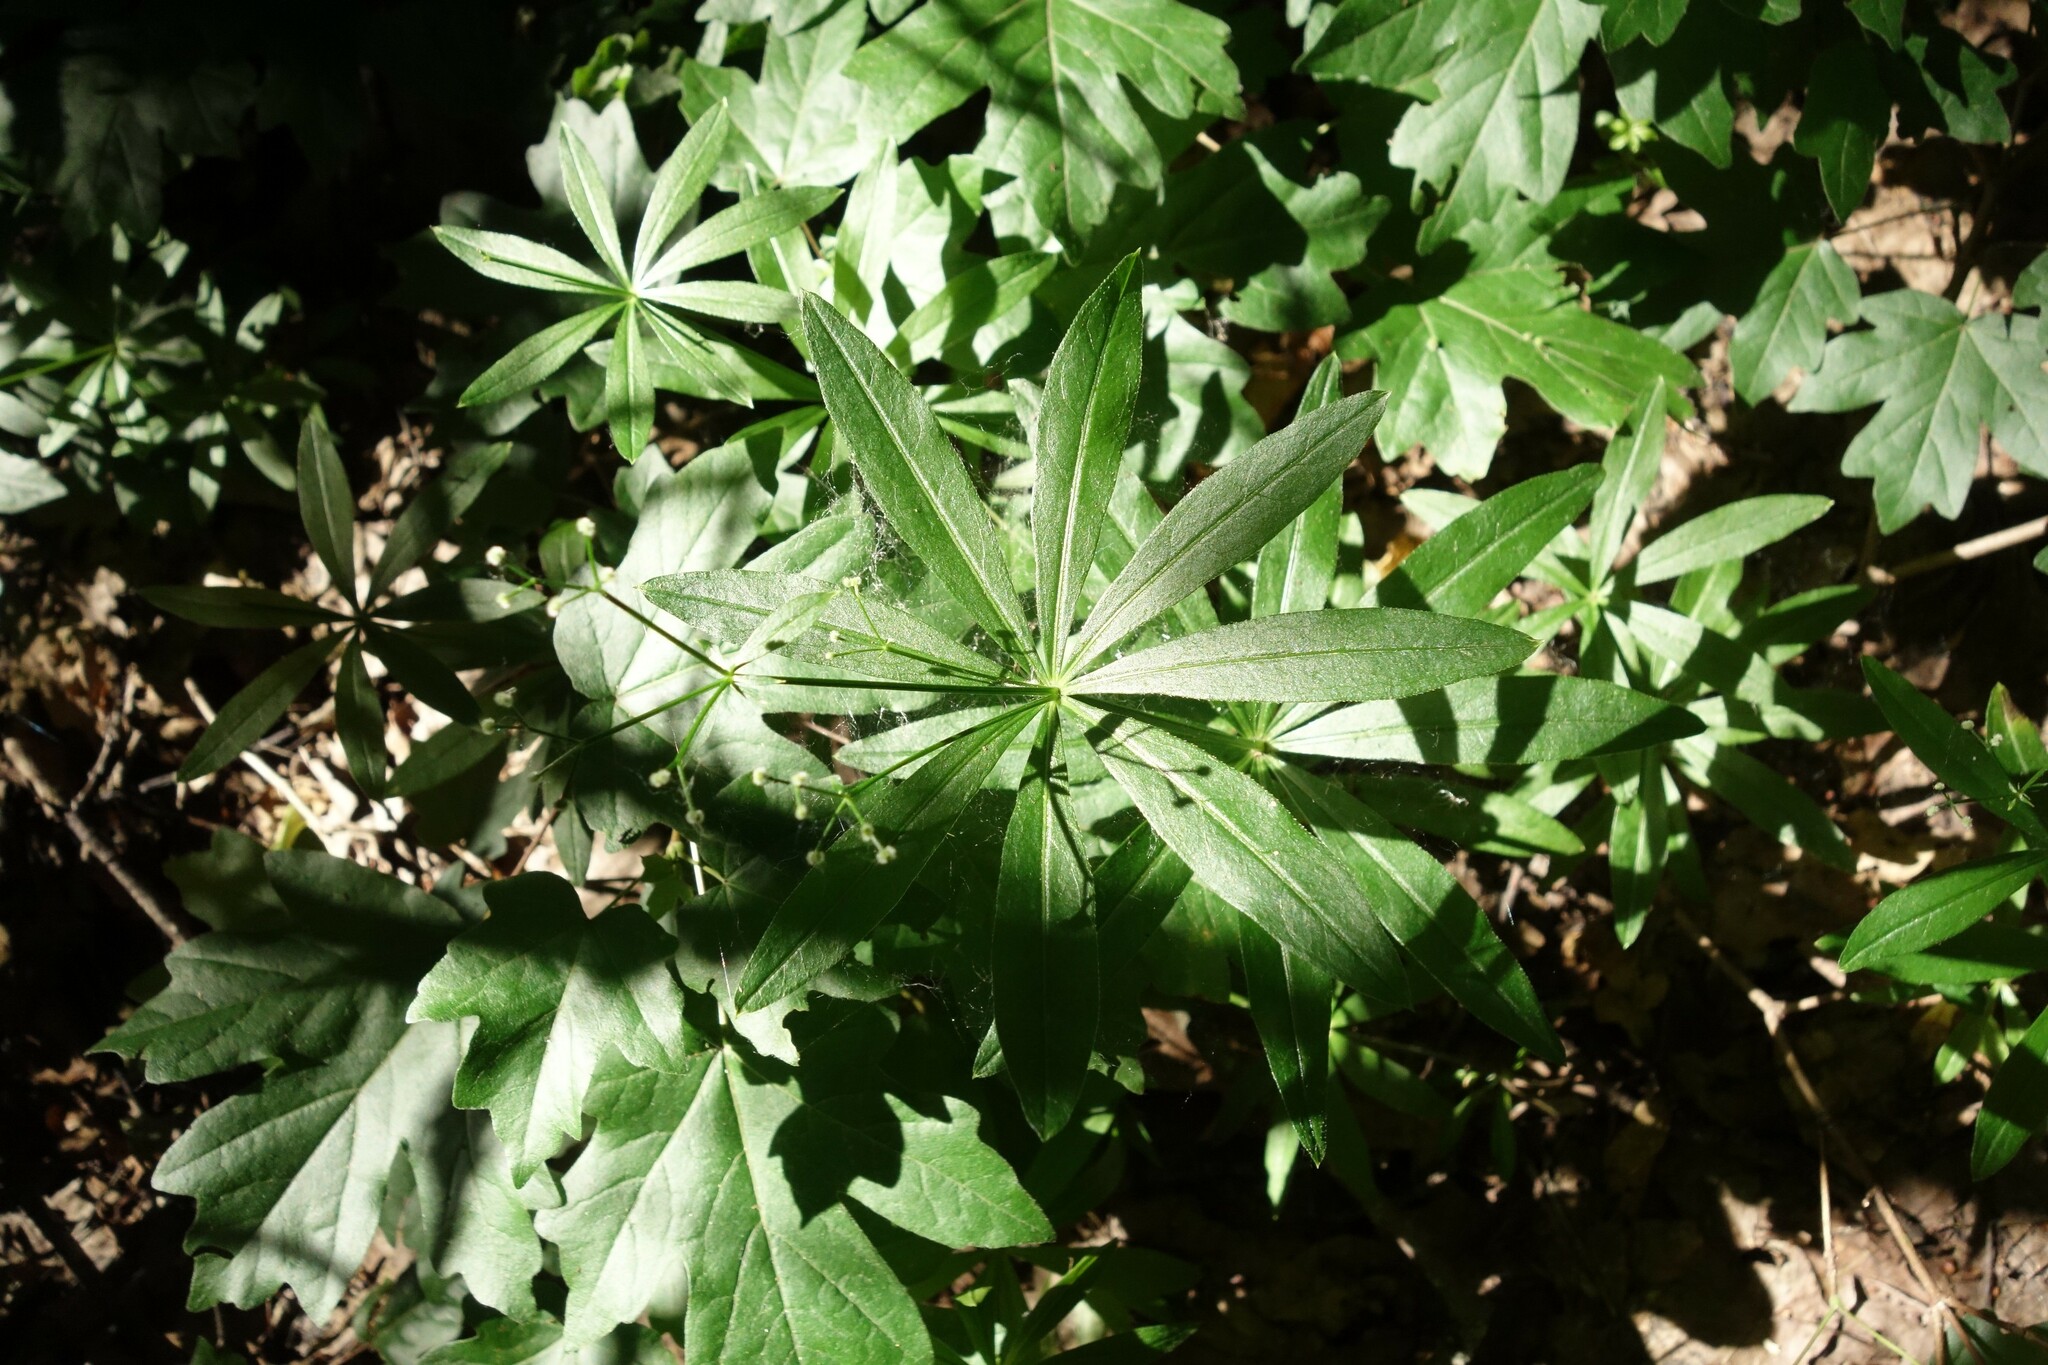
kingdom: Plantae
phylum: Tracheophyta
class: Magnoliopsida
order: Gentianales
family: Rubiaceae
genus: Galium
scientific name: Galium odoratum
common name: Sweet woodruff
